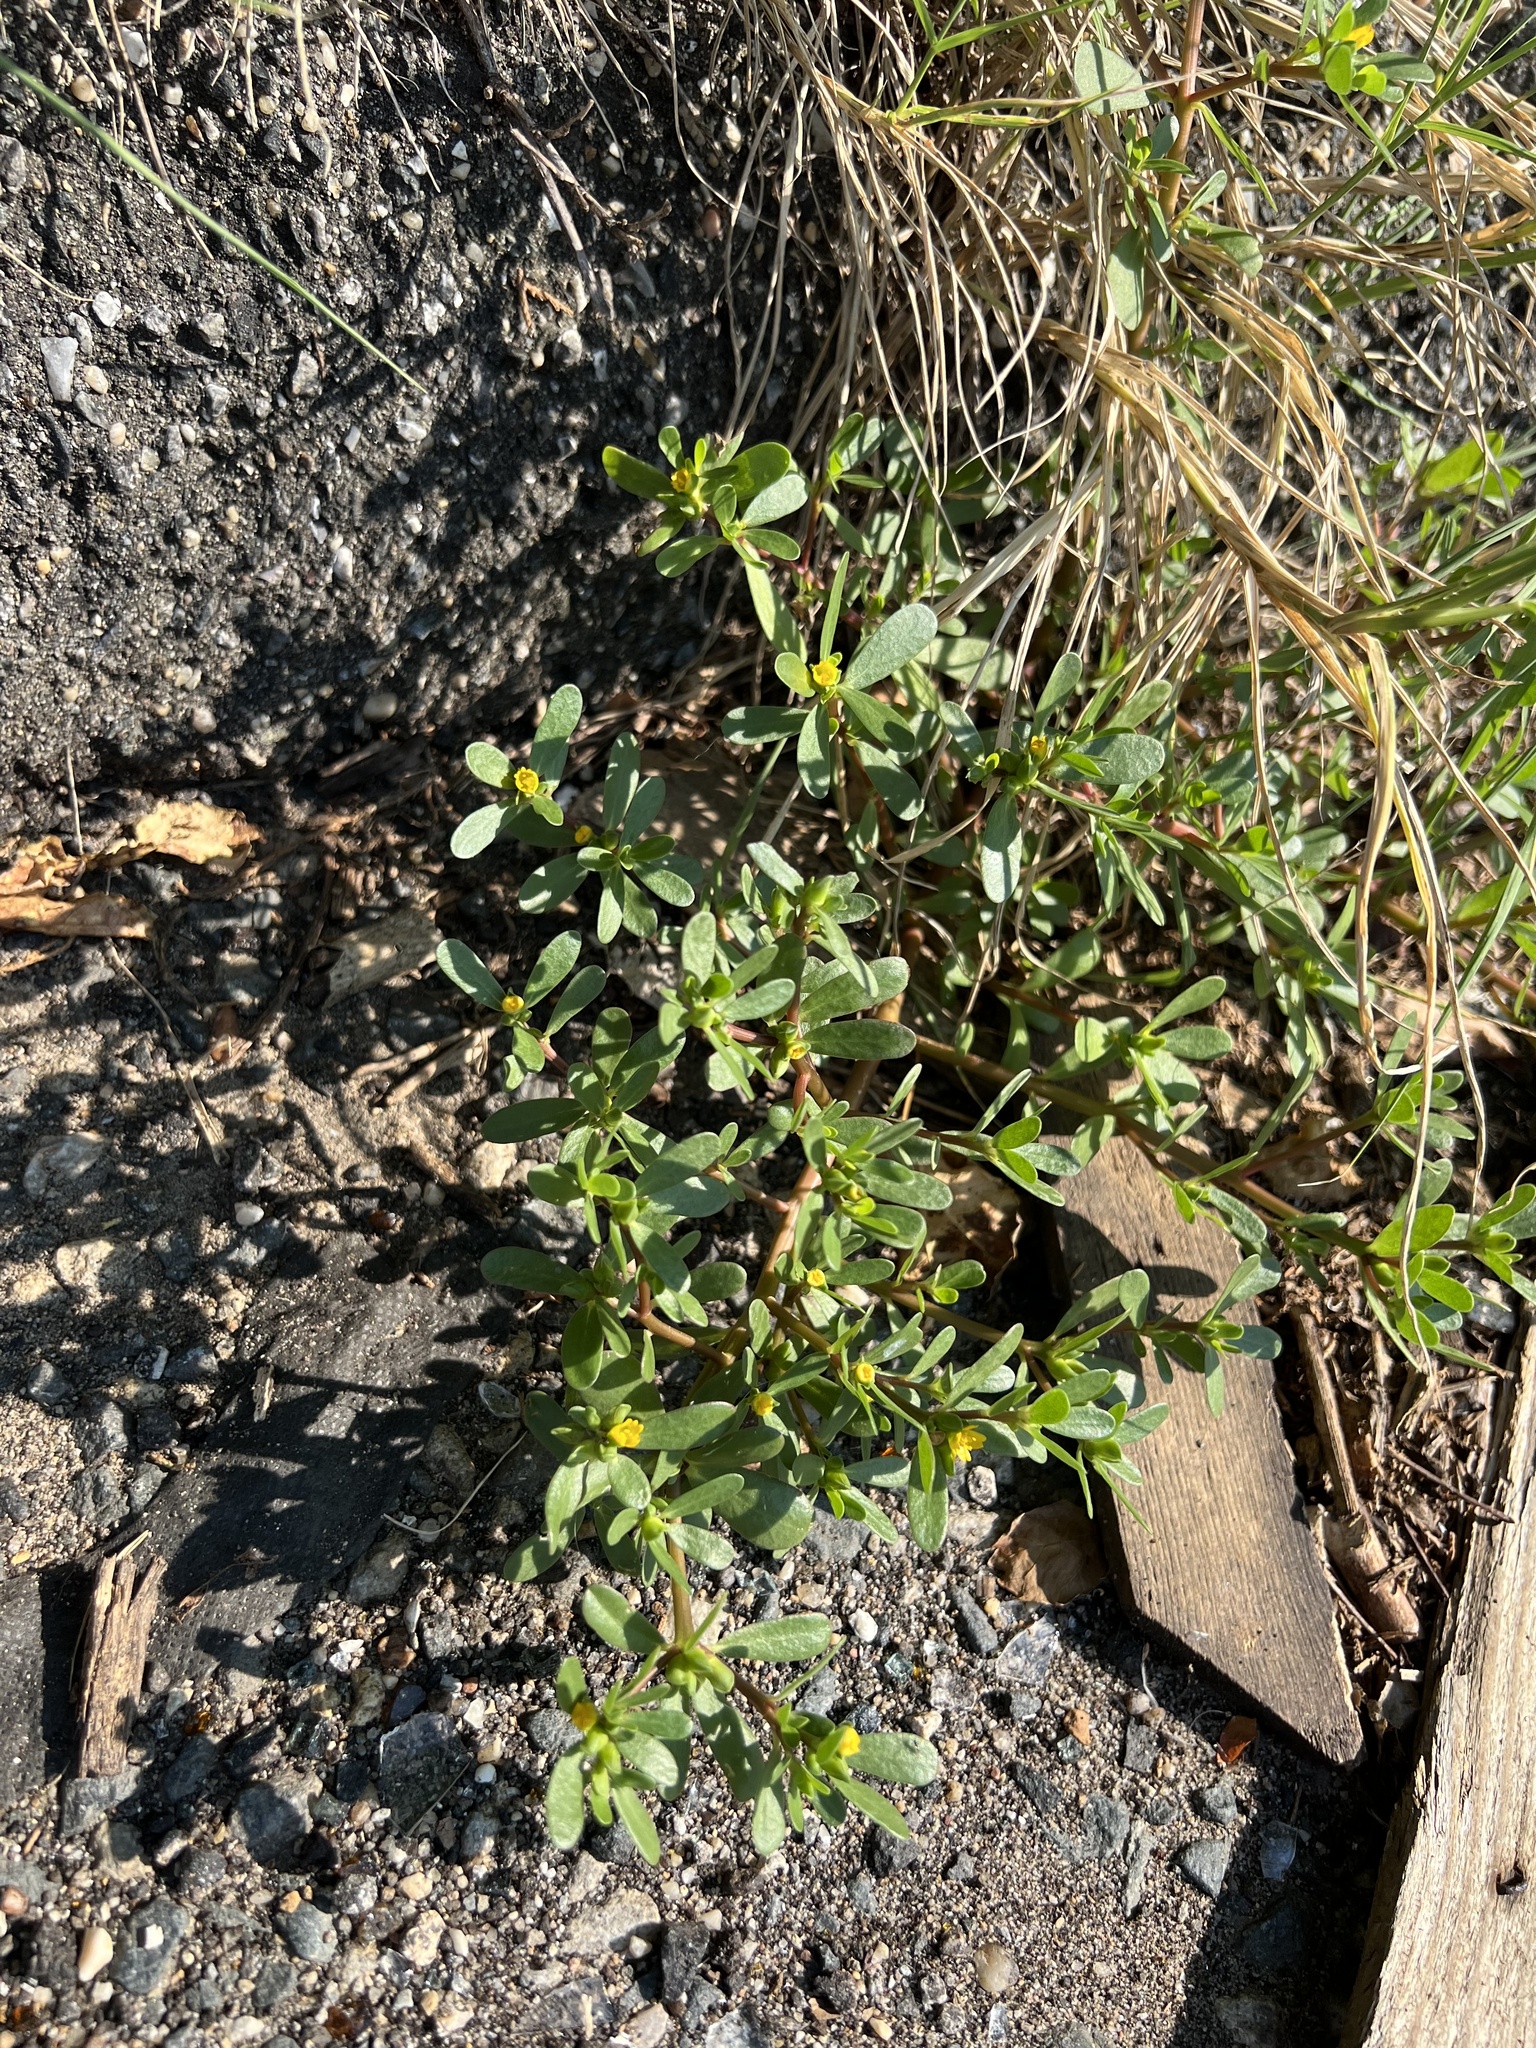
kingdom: Plantae
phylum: Tracheophyta
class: Magnoliopsida
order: Caryophyllales
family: Portulacaceae
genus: Portulaca
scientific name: Portulaca oleracea
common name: Common purslane
